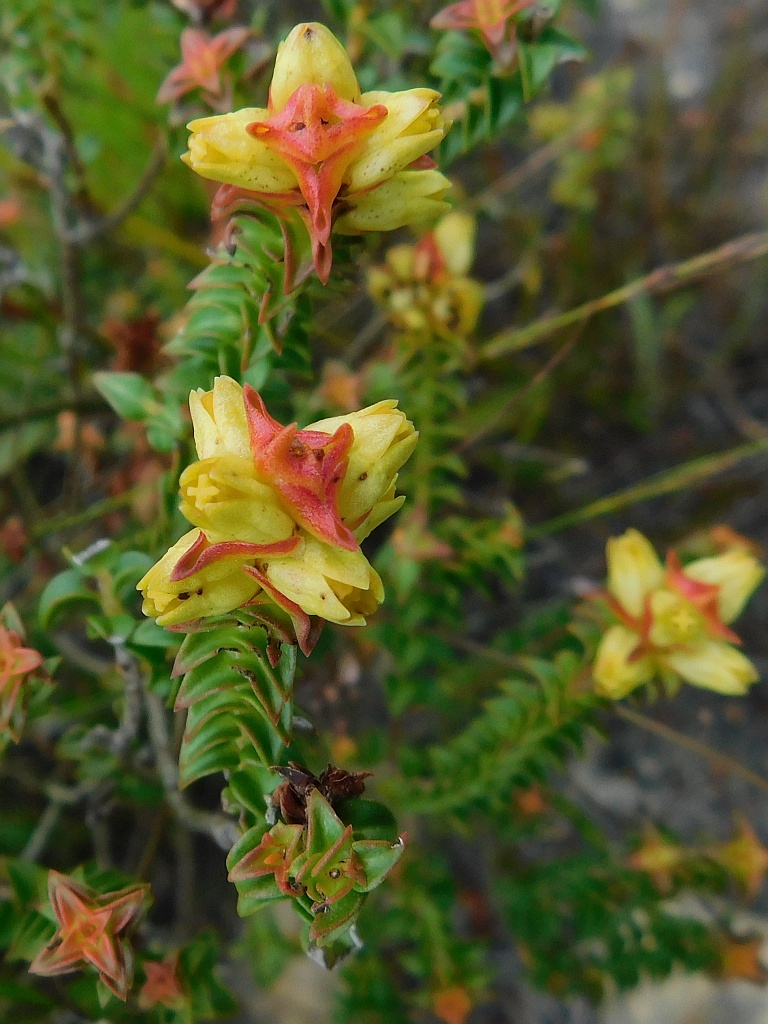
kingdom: Plantae
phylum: Tracheophyta
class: Magnoliopsida
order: Myrtales
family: Penaeaceae
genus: Penaea
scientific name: Penaea mucronata
